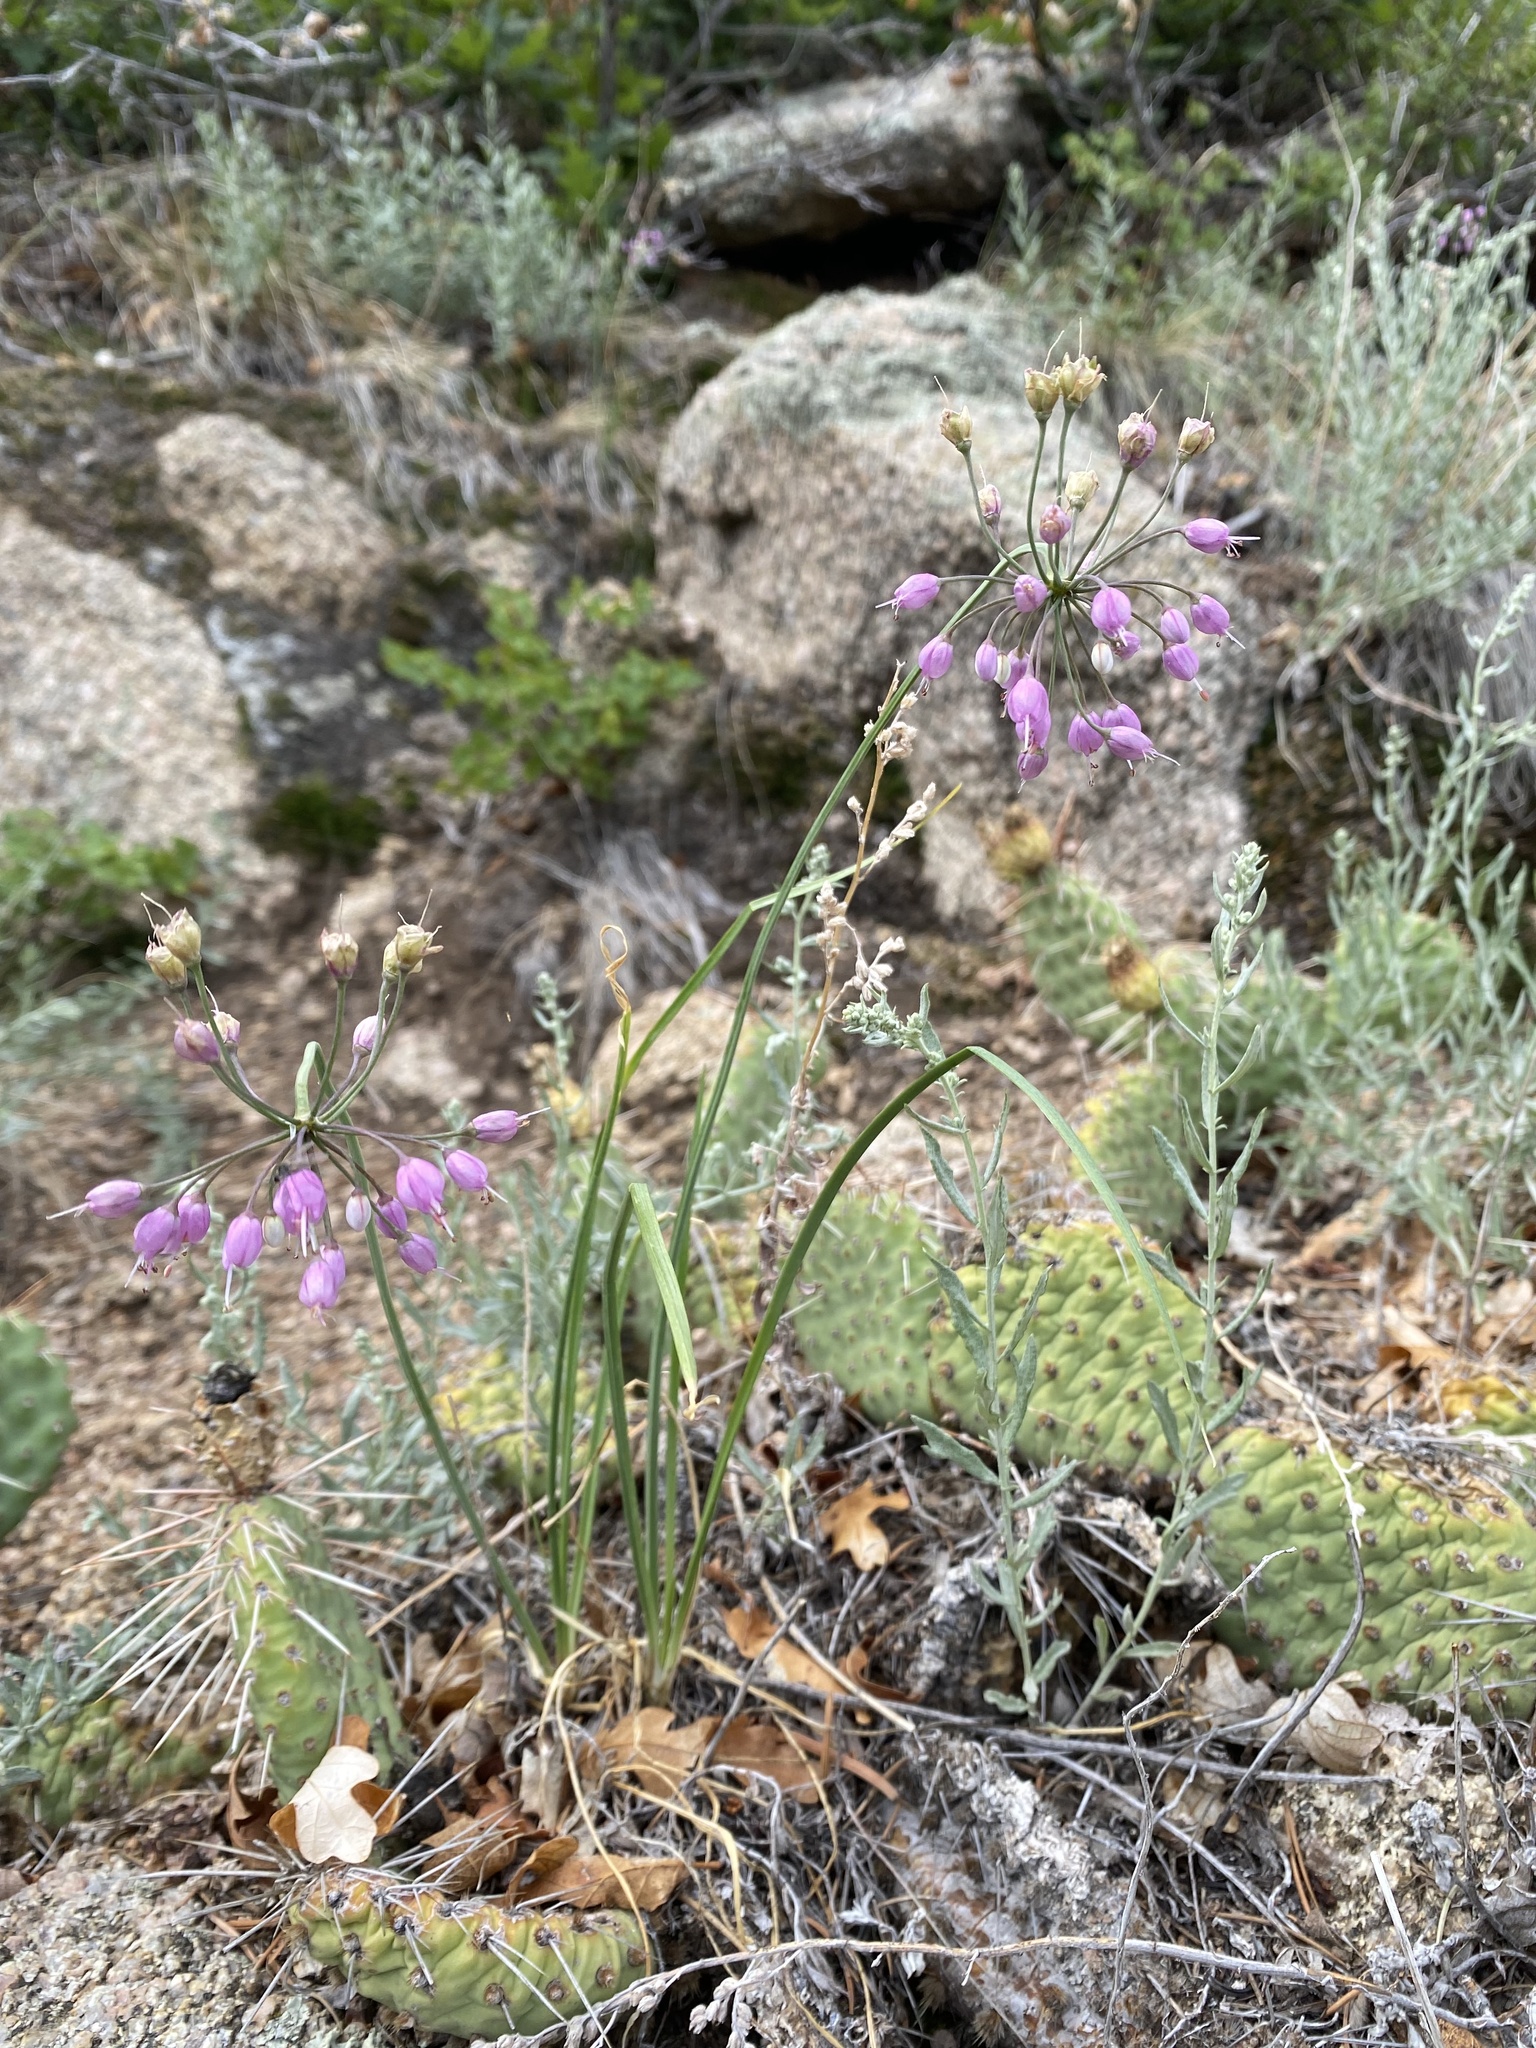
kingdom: Plantae
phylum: Tracheophyta
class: Liliopsida
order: Asparagales
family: Amaryllidaceae
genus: Allium
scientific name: Allium cernuum
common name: Nodding onion
